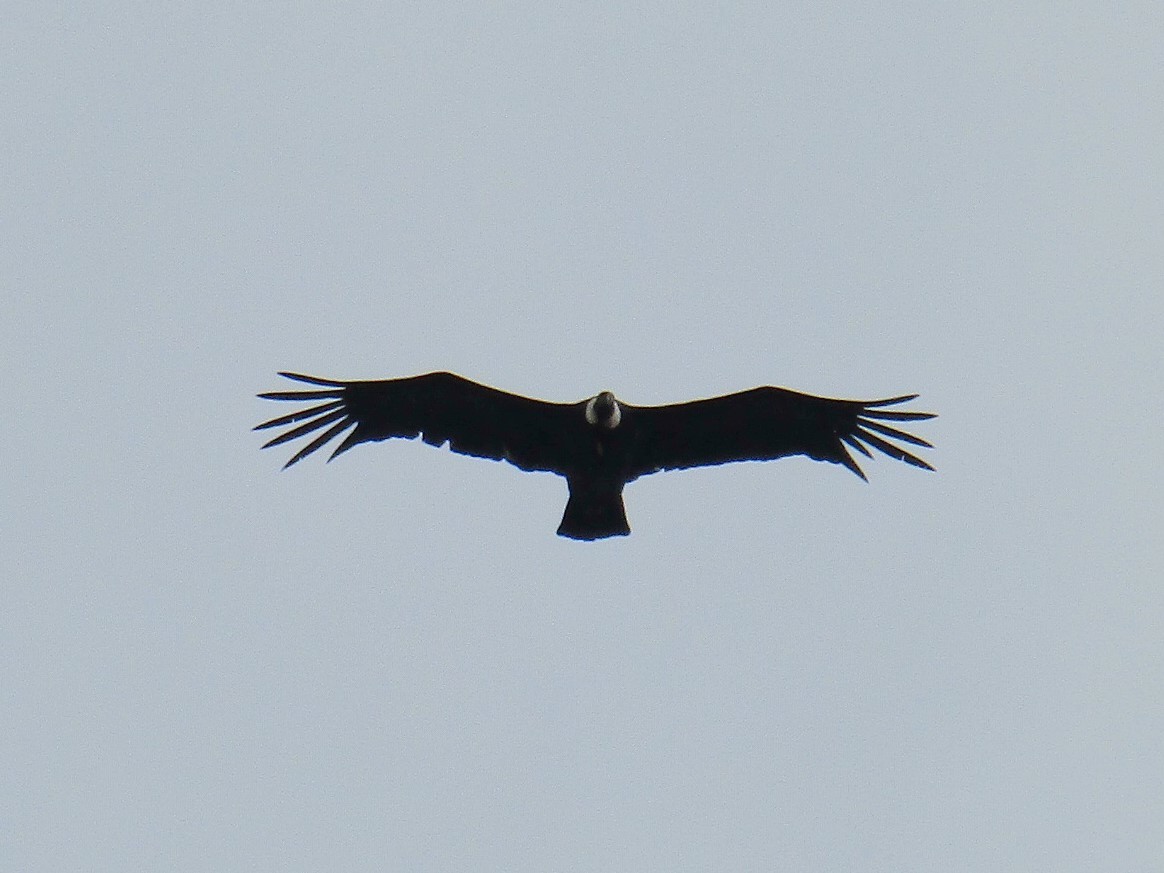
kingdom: Animalia
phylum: Chordata
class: Aves
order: Accipitriformes
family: Cathartidae
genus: Vultur
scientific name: Vultur gryphus
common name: Andean condor
